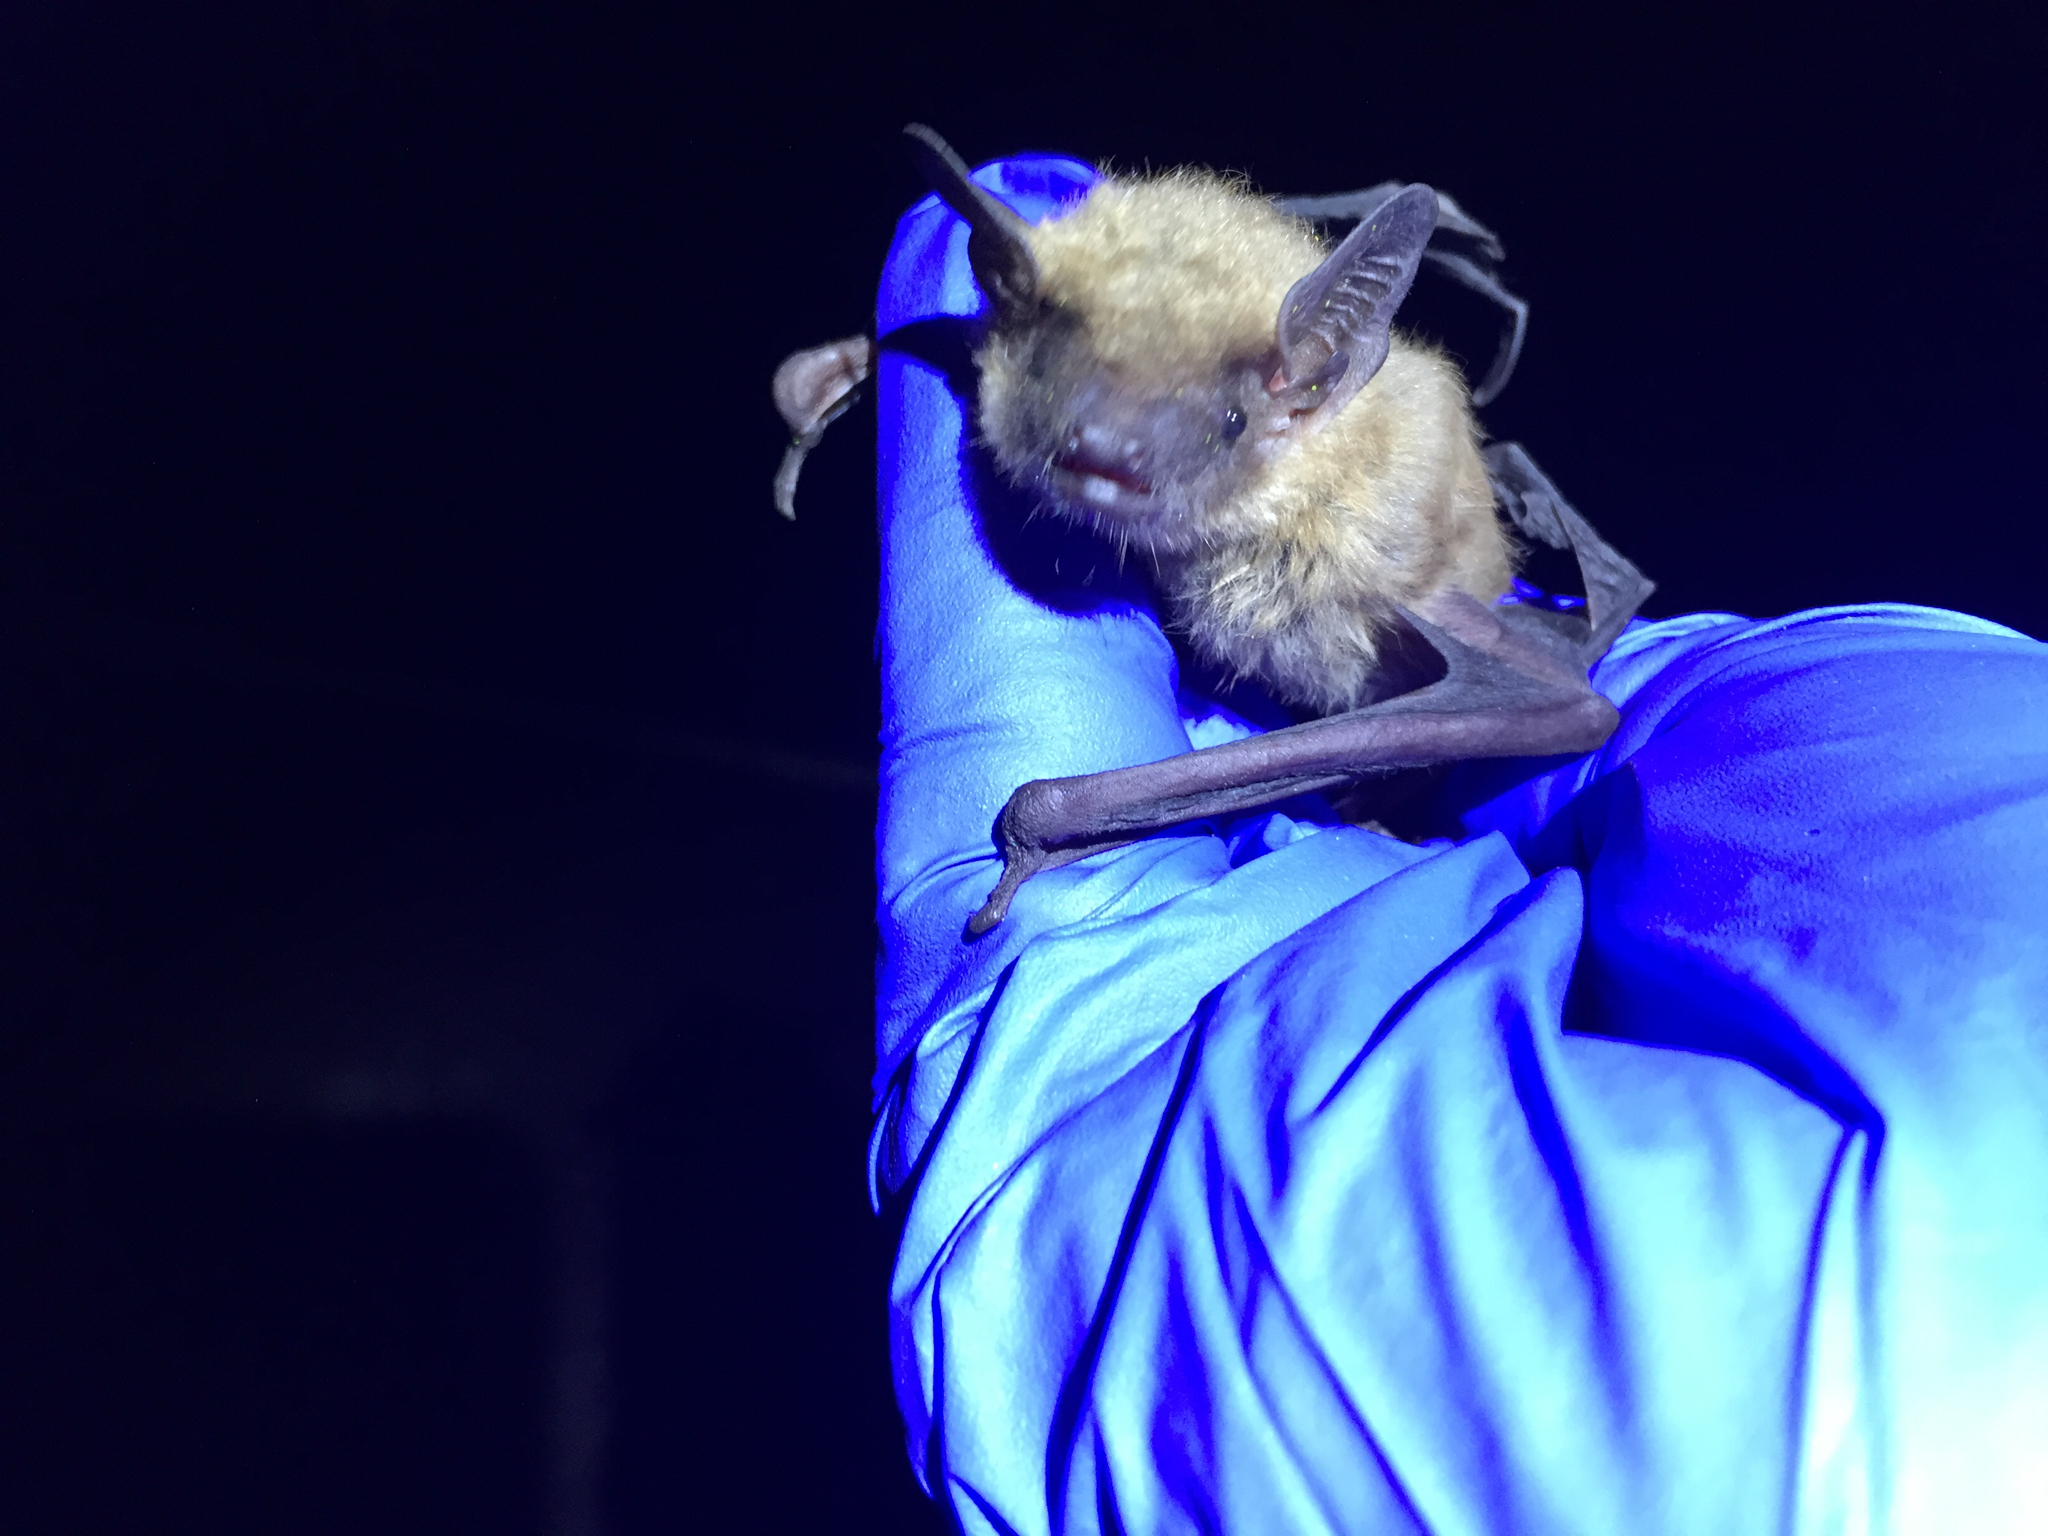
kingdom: Animalia
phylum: Chordata
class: Mammalia
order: Chiroptera
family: Vespertilionidae
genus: Eptesicus
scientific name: Eptesicus fuscus
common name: Big brown bat
